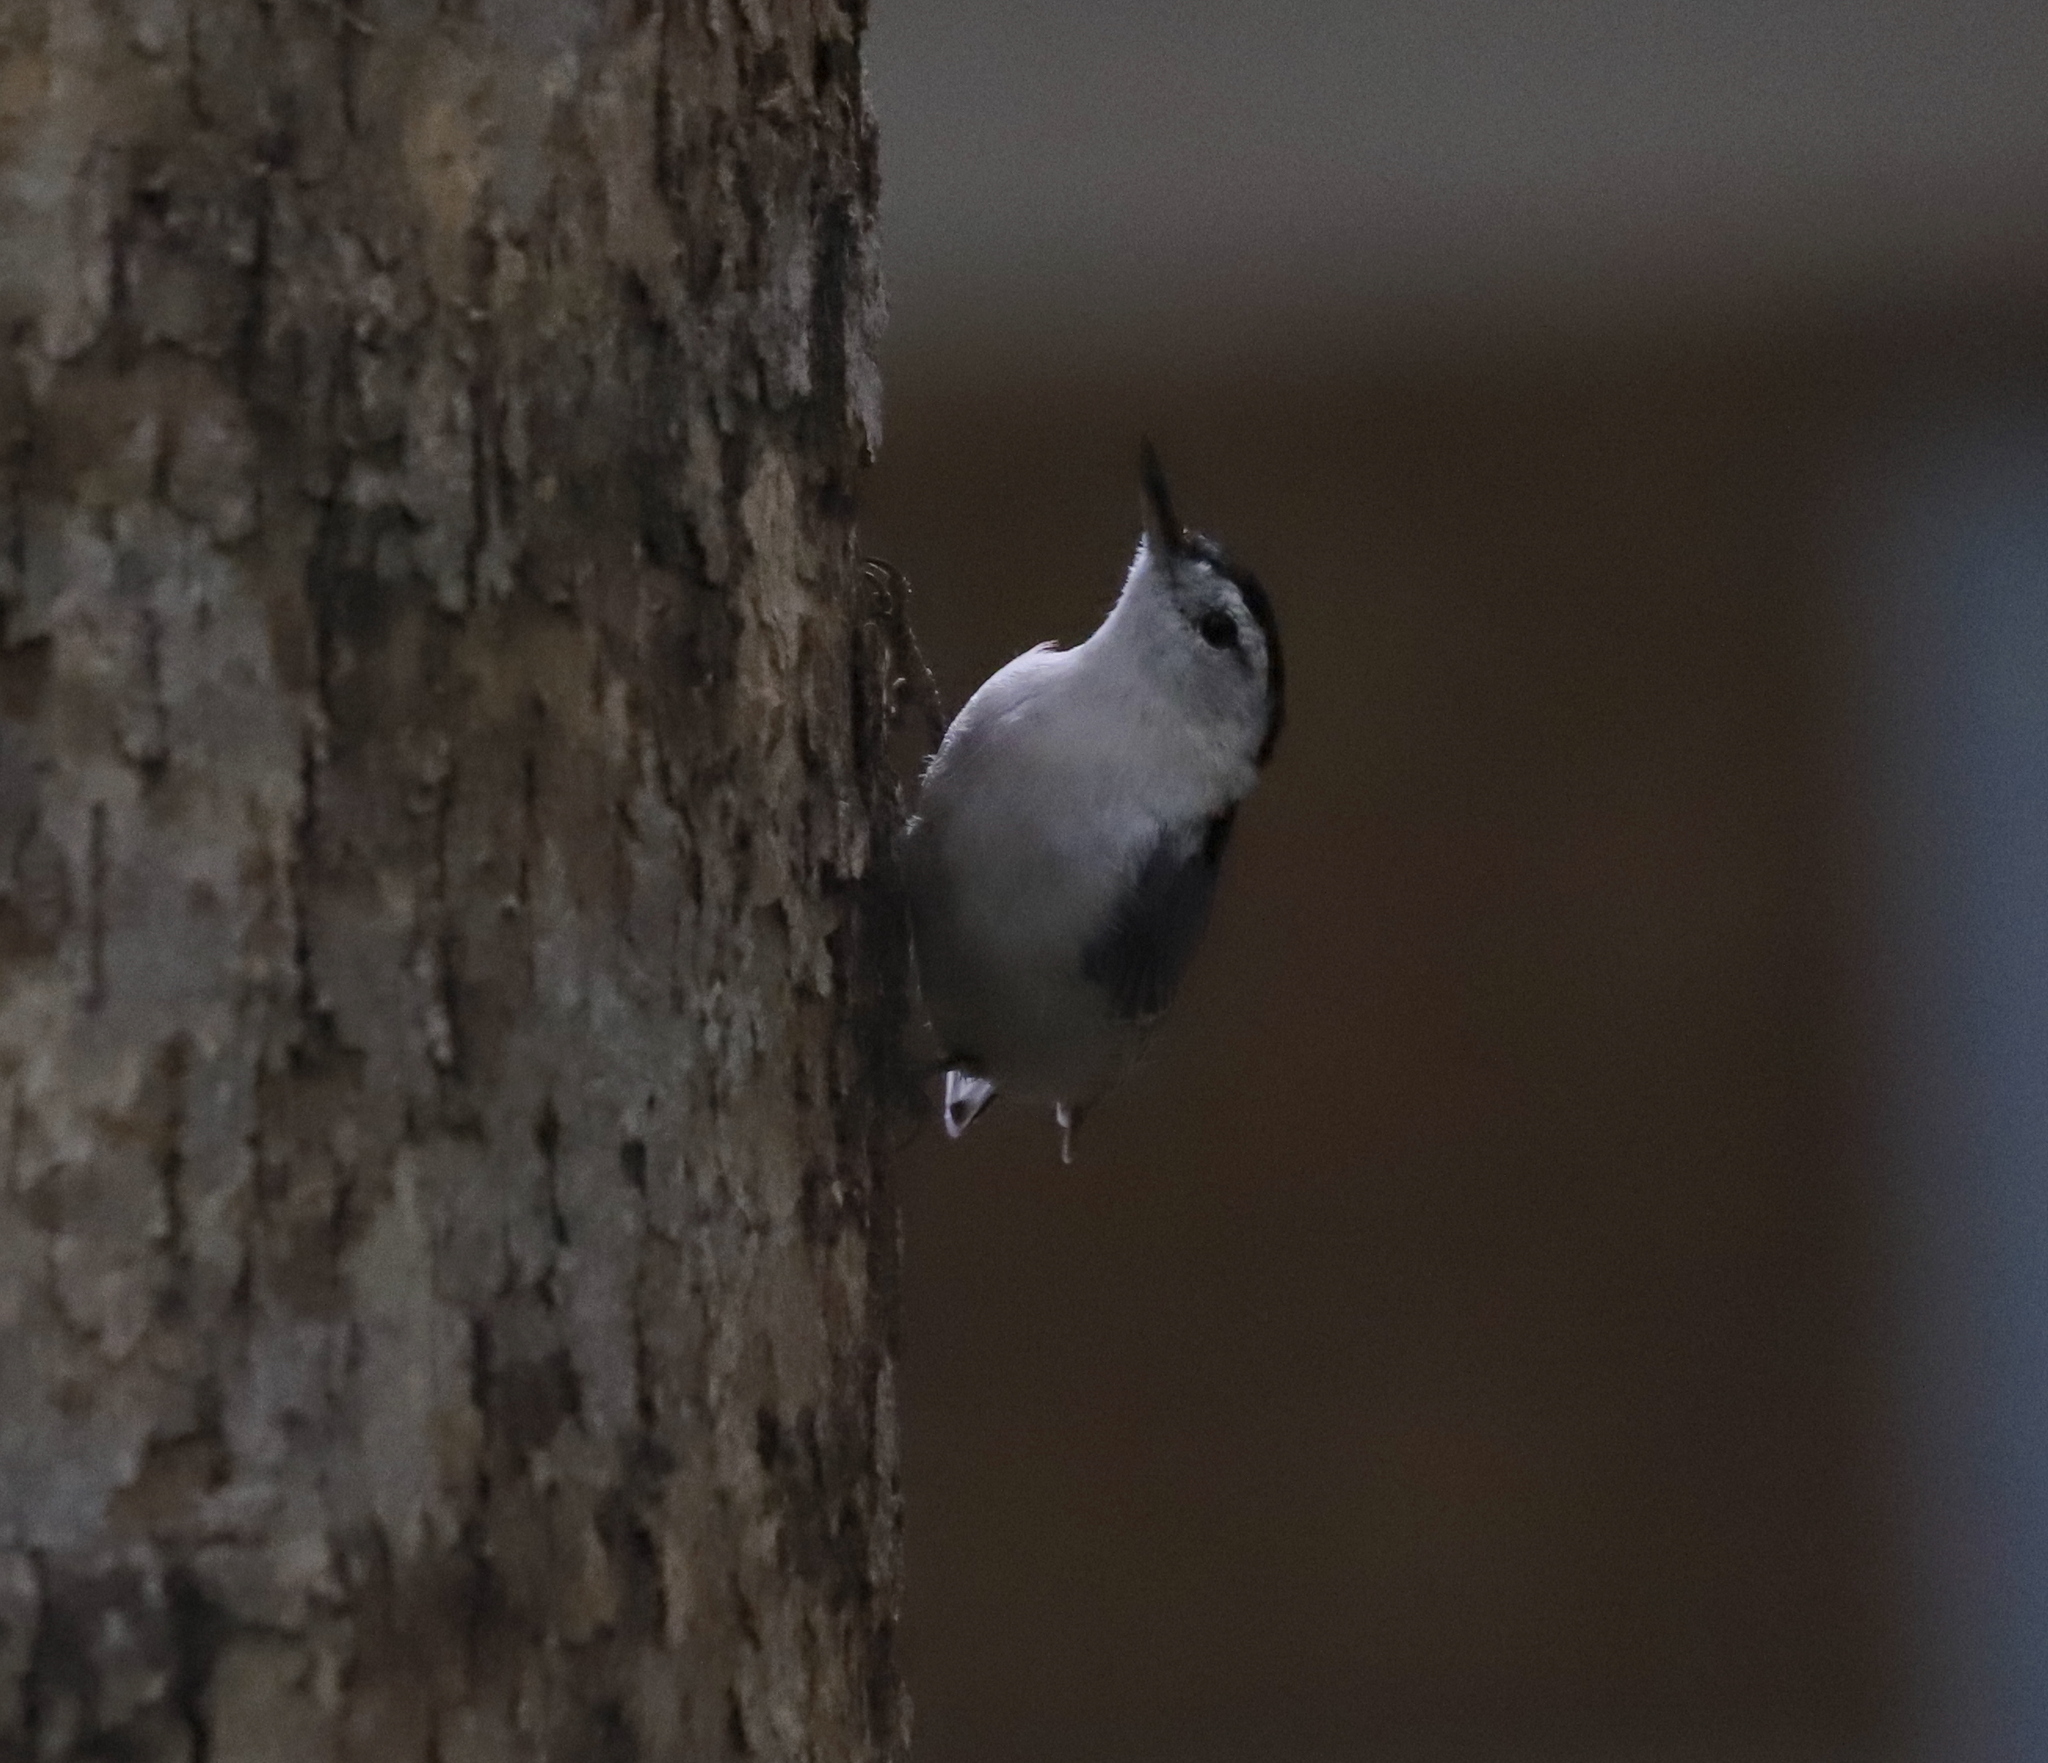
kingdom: Animalia
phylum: Chordata
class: Aves
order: Passeriformes
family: Sittidae
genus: Sitta
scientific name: Sitta carolinensis
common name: White-breasted nuthatch
